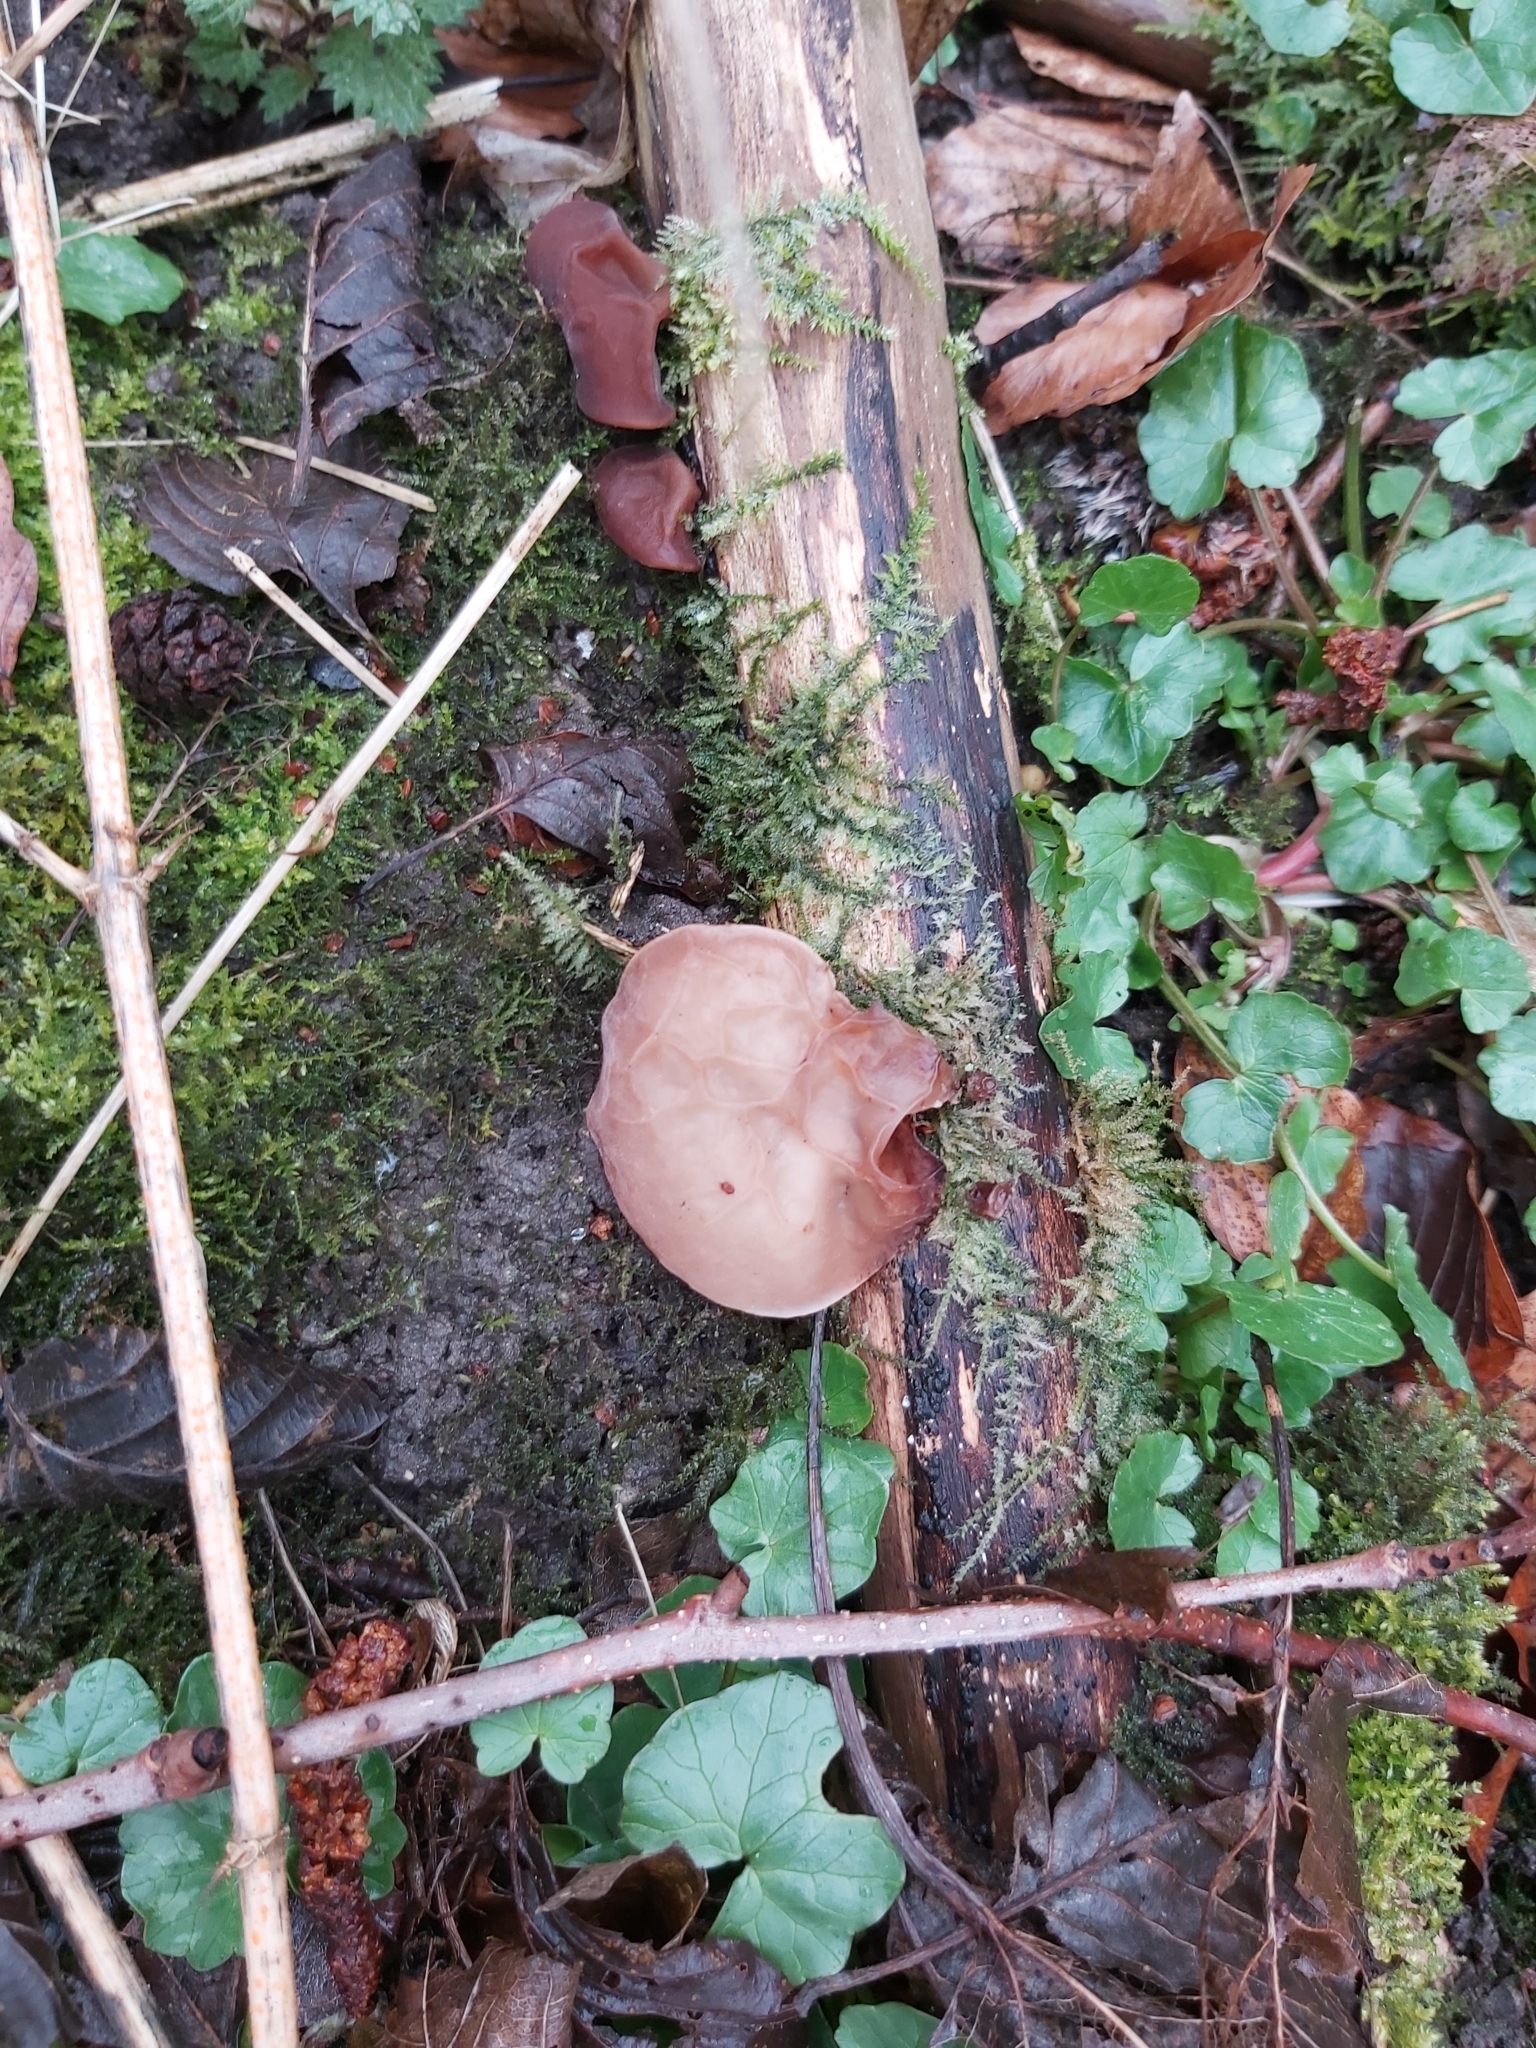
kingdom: Fungi
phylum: Basidiomycota
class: Agaricomycetes
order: Auriculariales
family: Auriculariaceae
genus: Auricularia
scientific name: Auricularia auricula-judae
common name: Jelly ear
